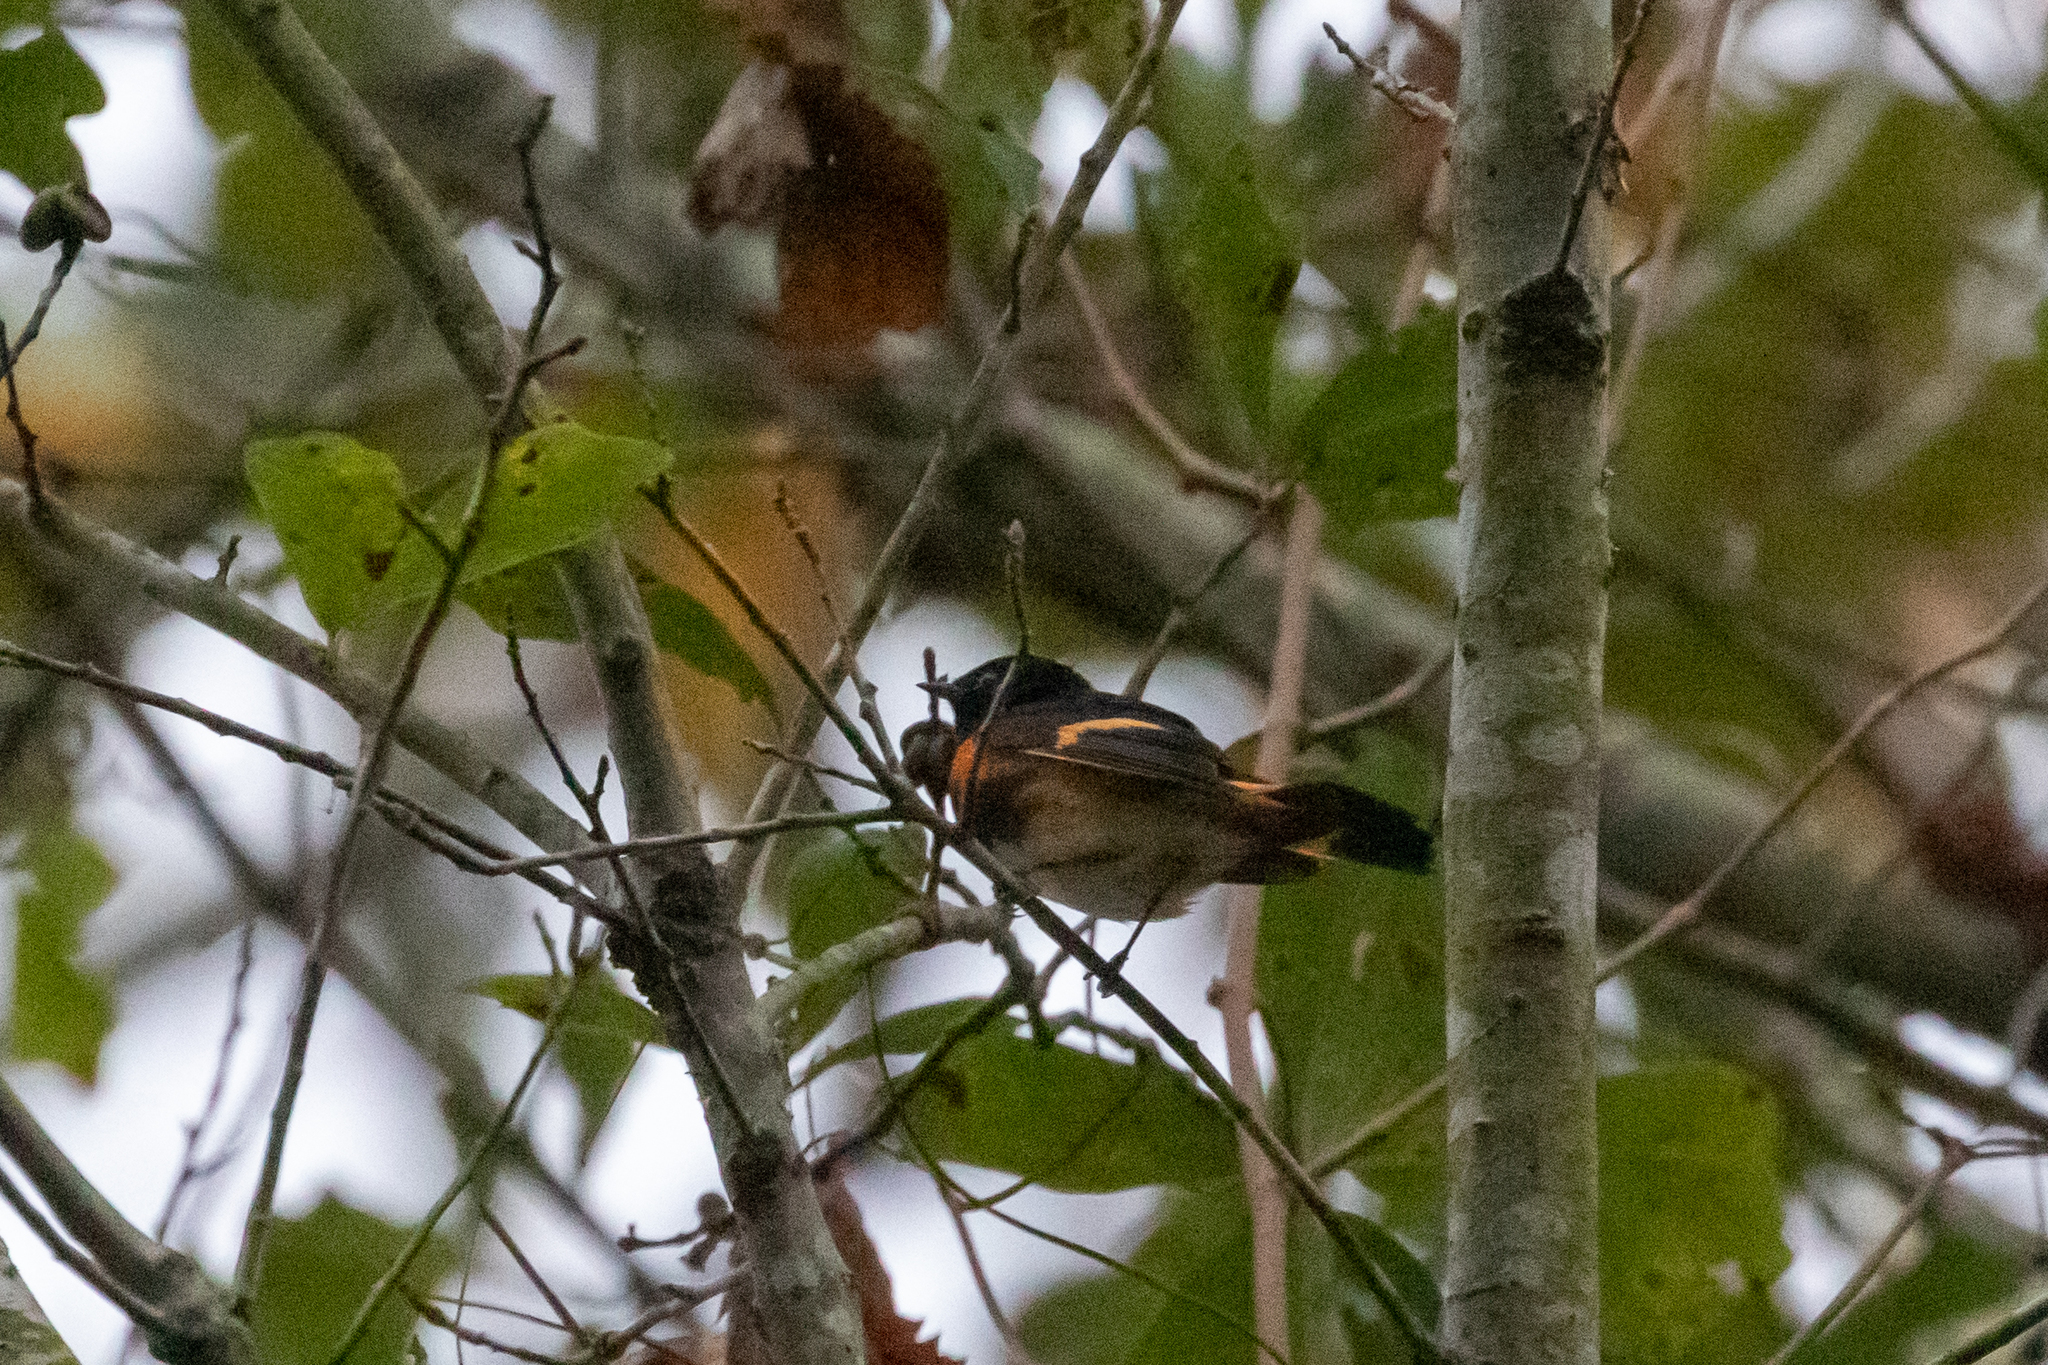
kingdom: Animalia
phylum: Chordata
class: Aves
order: Passeriformes
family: Parulidae
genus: Setophaga
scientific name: Setophaga ruticilla
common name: American redstart
